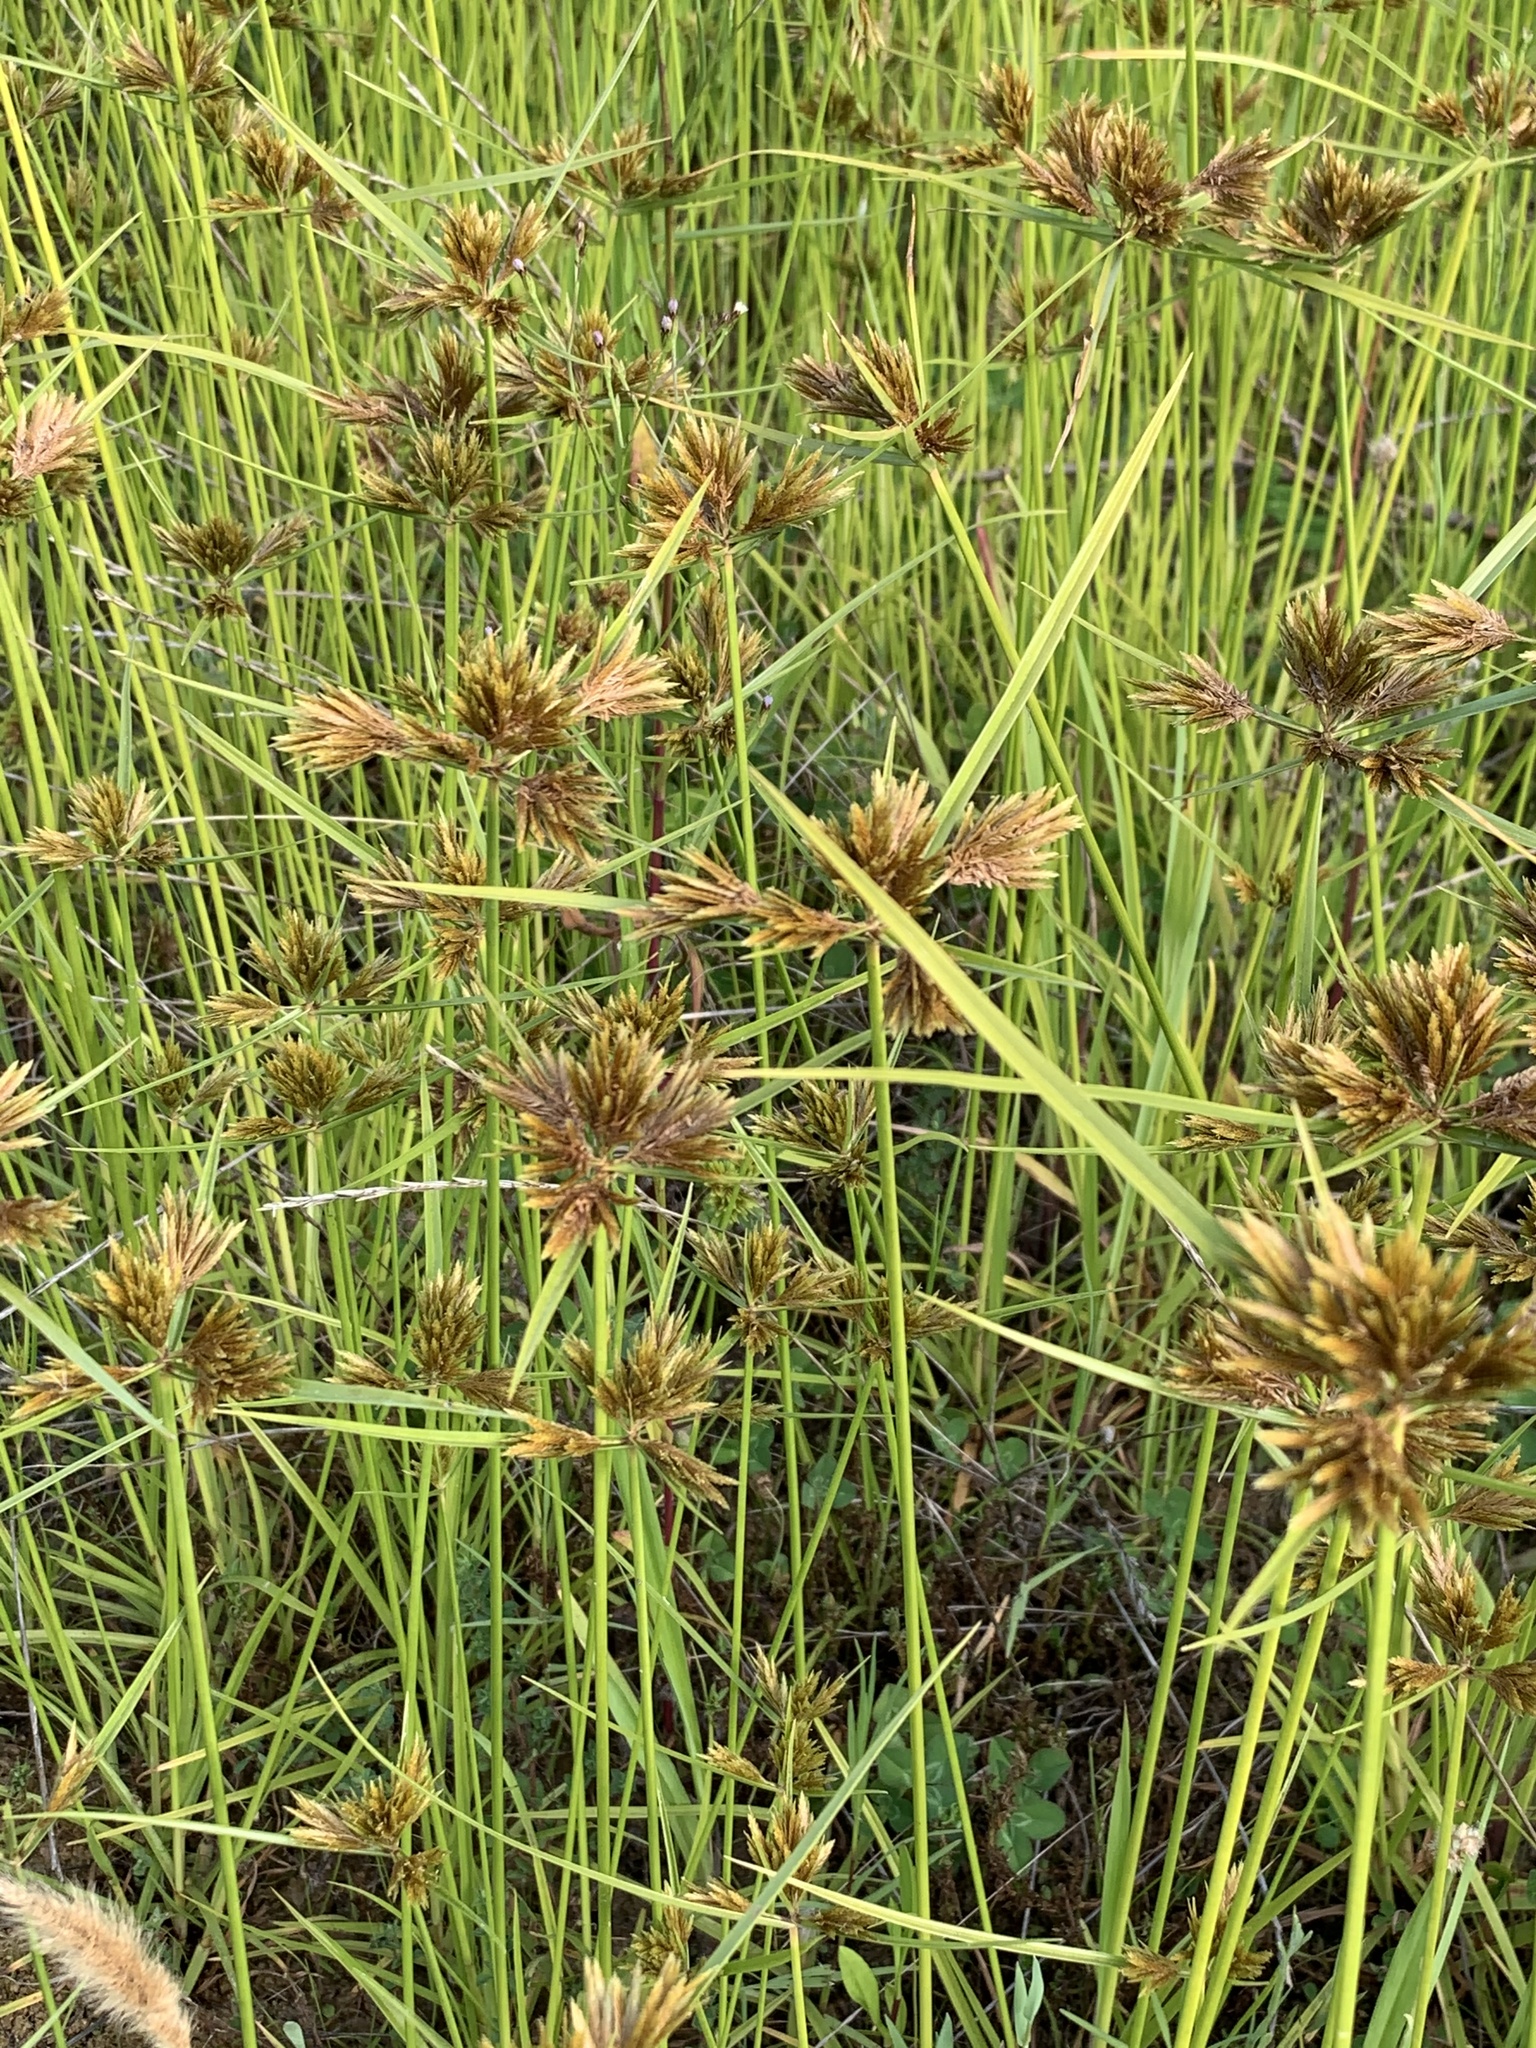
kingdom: Plantae
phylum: Tracheophyta
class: Liliopsida
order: Poales
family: Cyperaceae
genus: Cyperus
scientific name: Cyperus polystachyos
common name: Bunchy flat sedge
